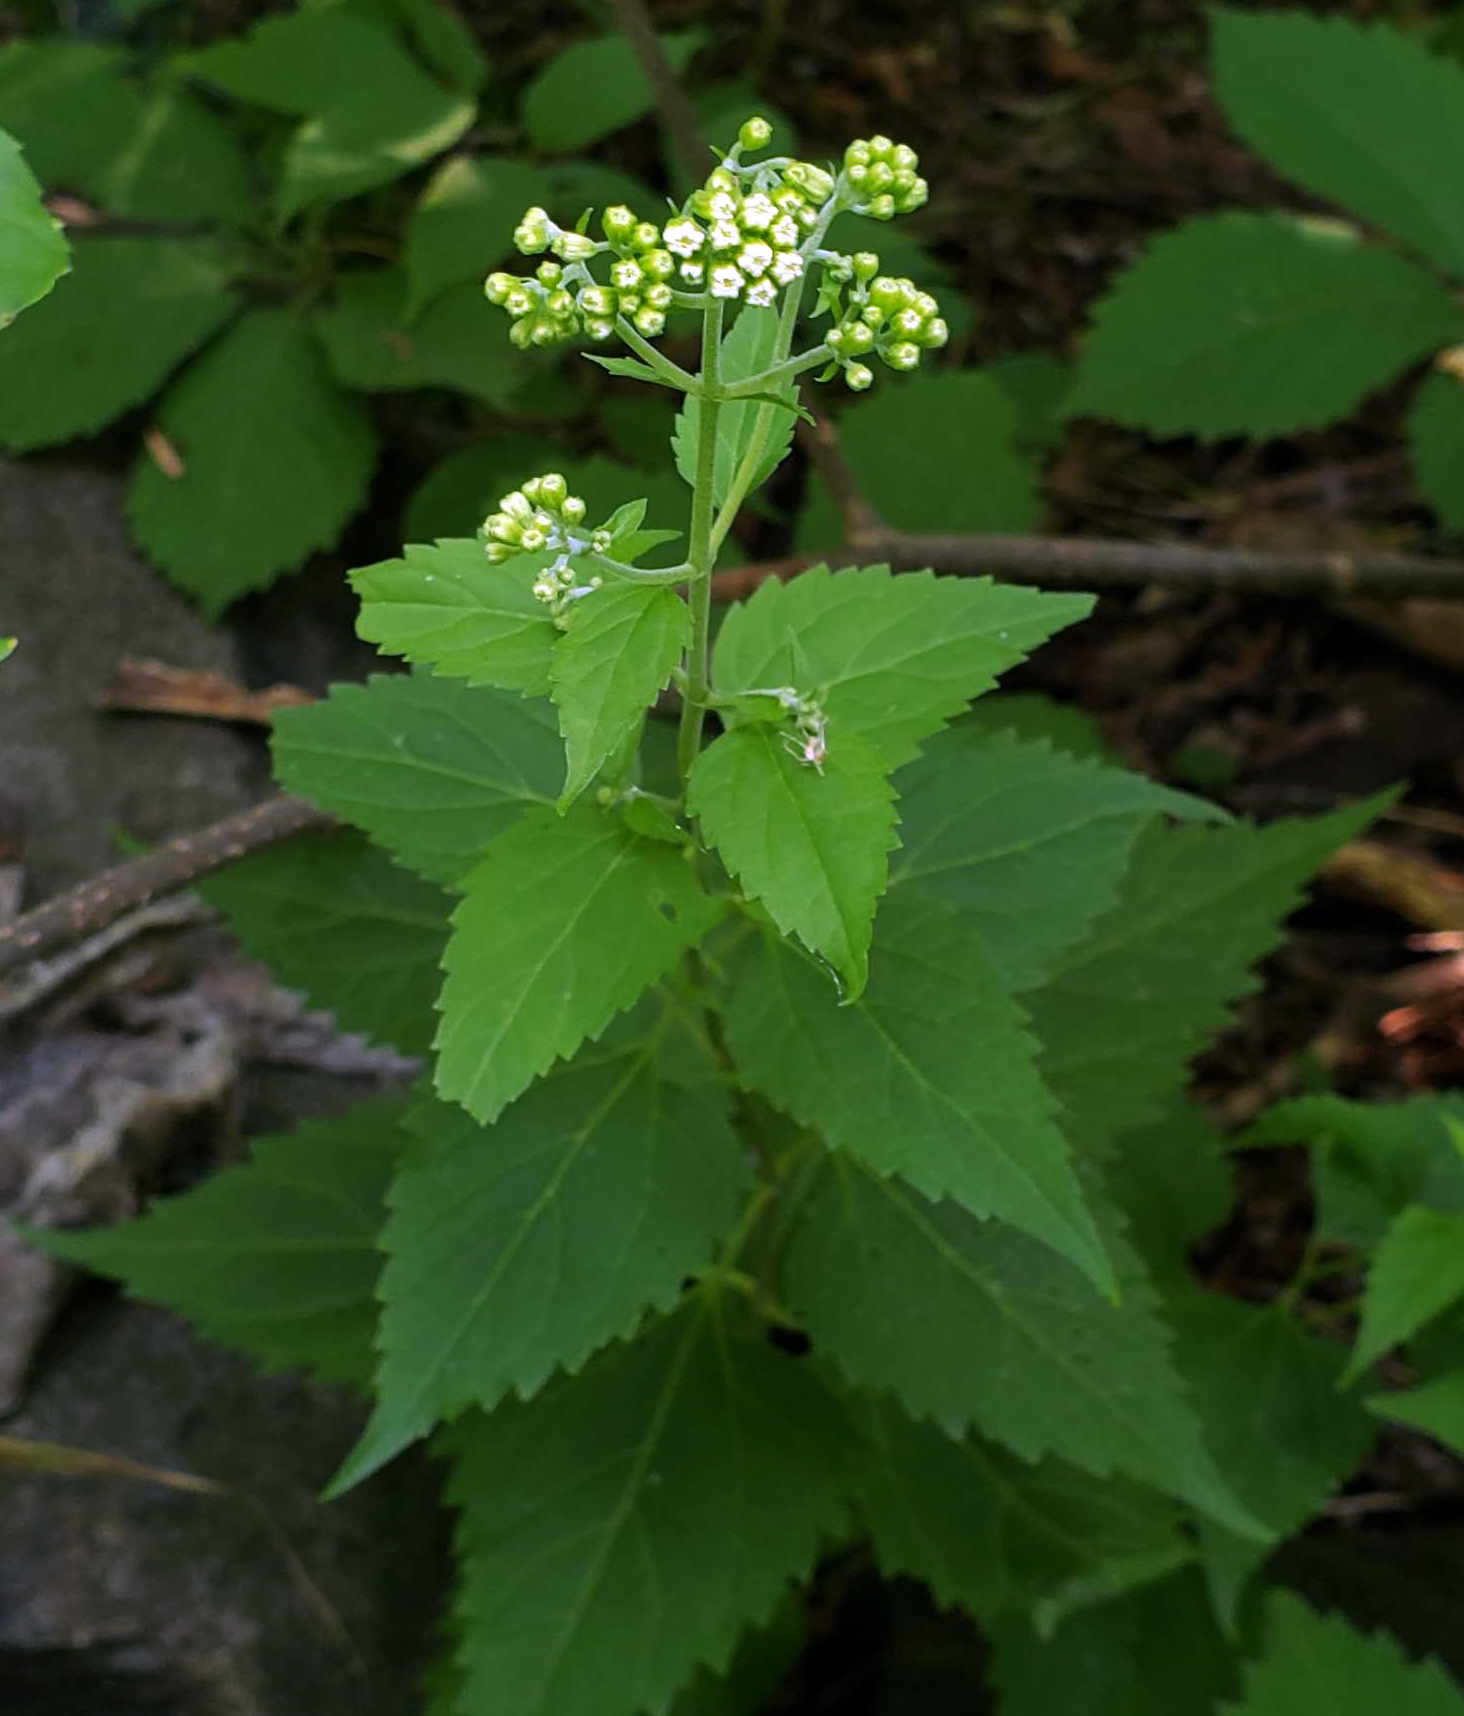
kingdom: Plantae
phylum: Tracheophyta
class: Magnoliopsida
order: Asterales
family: Asteraceae
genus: Ageratina
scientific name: Ageratina altissima
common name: White snakeroot
